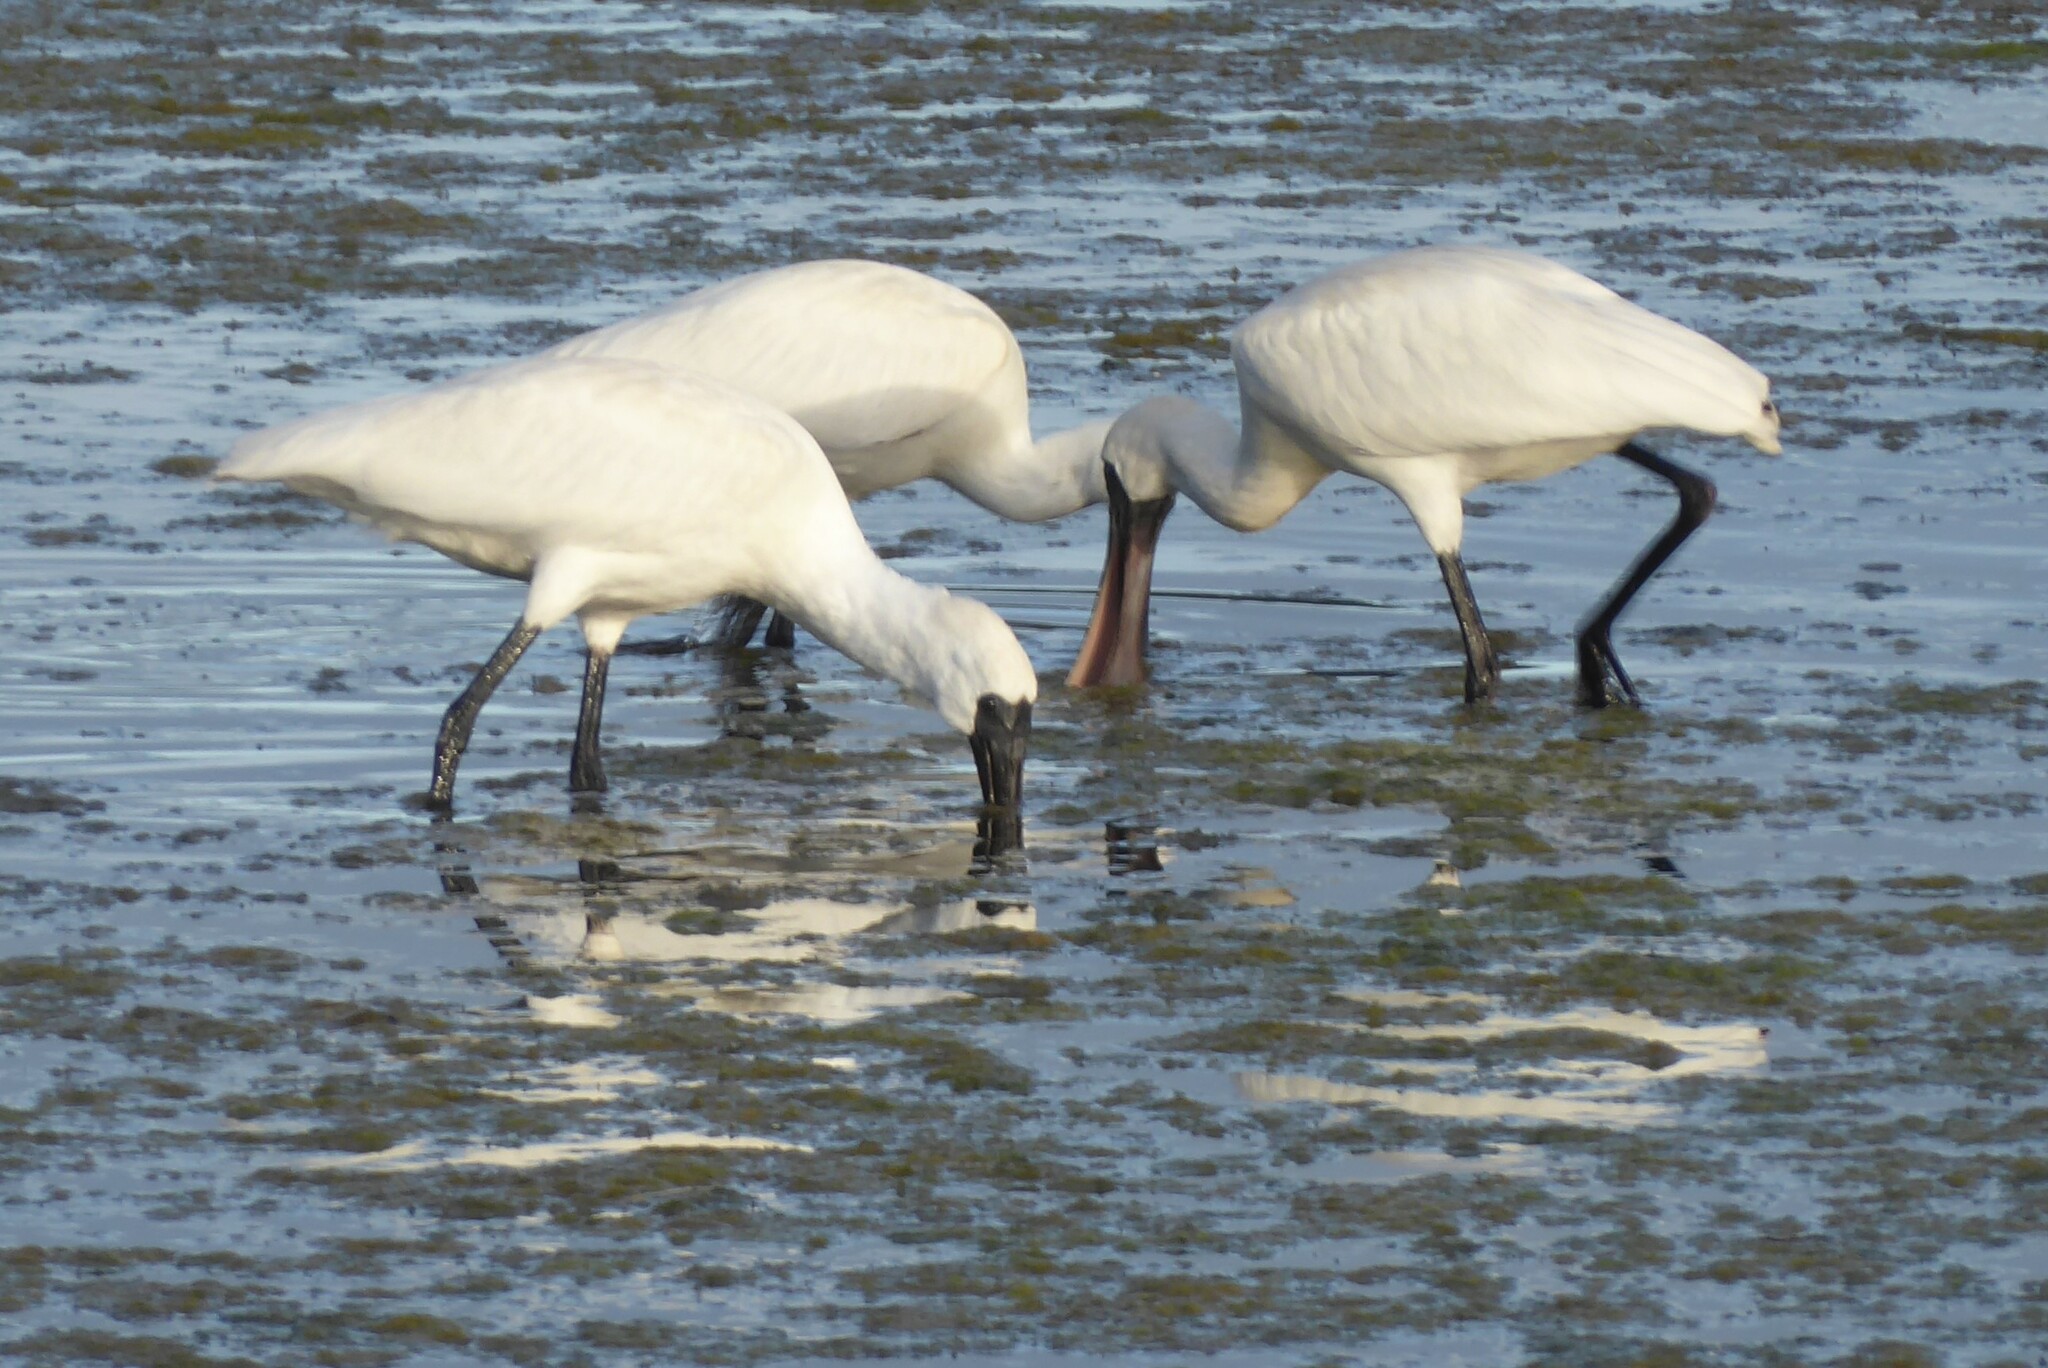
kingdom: Animalia
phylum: Chordata
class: Aves
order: Pelecaniformes
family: Threskiornithidae
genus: Platalea
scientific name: Platalea regia
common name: Royal spoonbill
